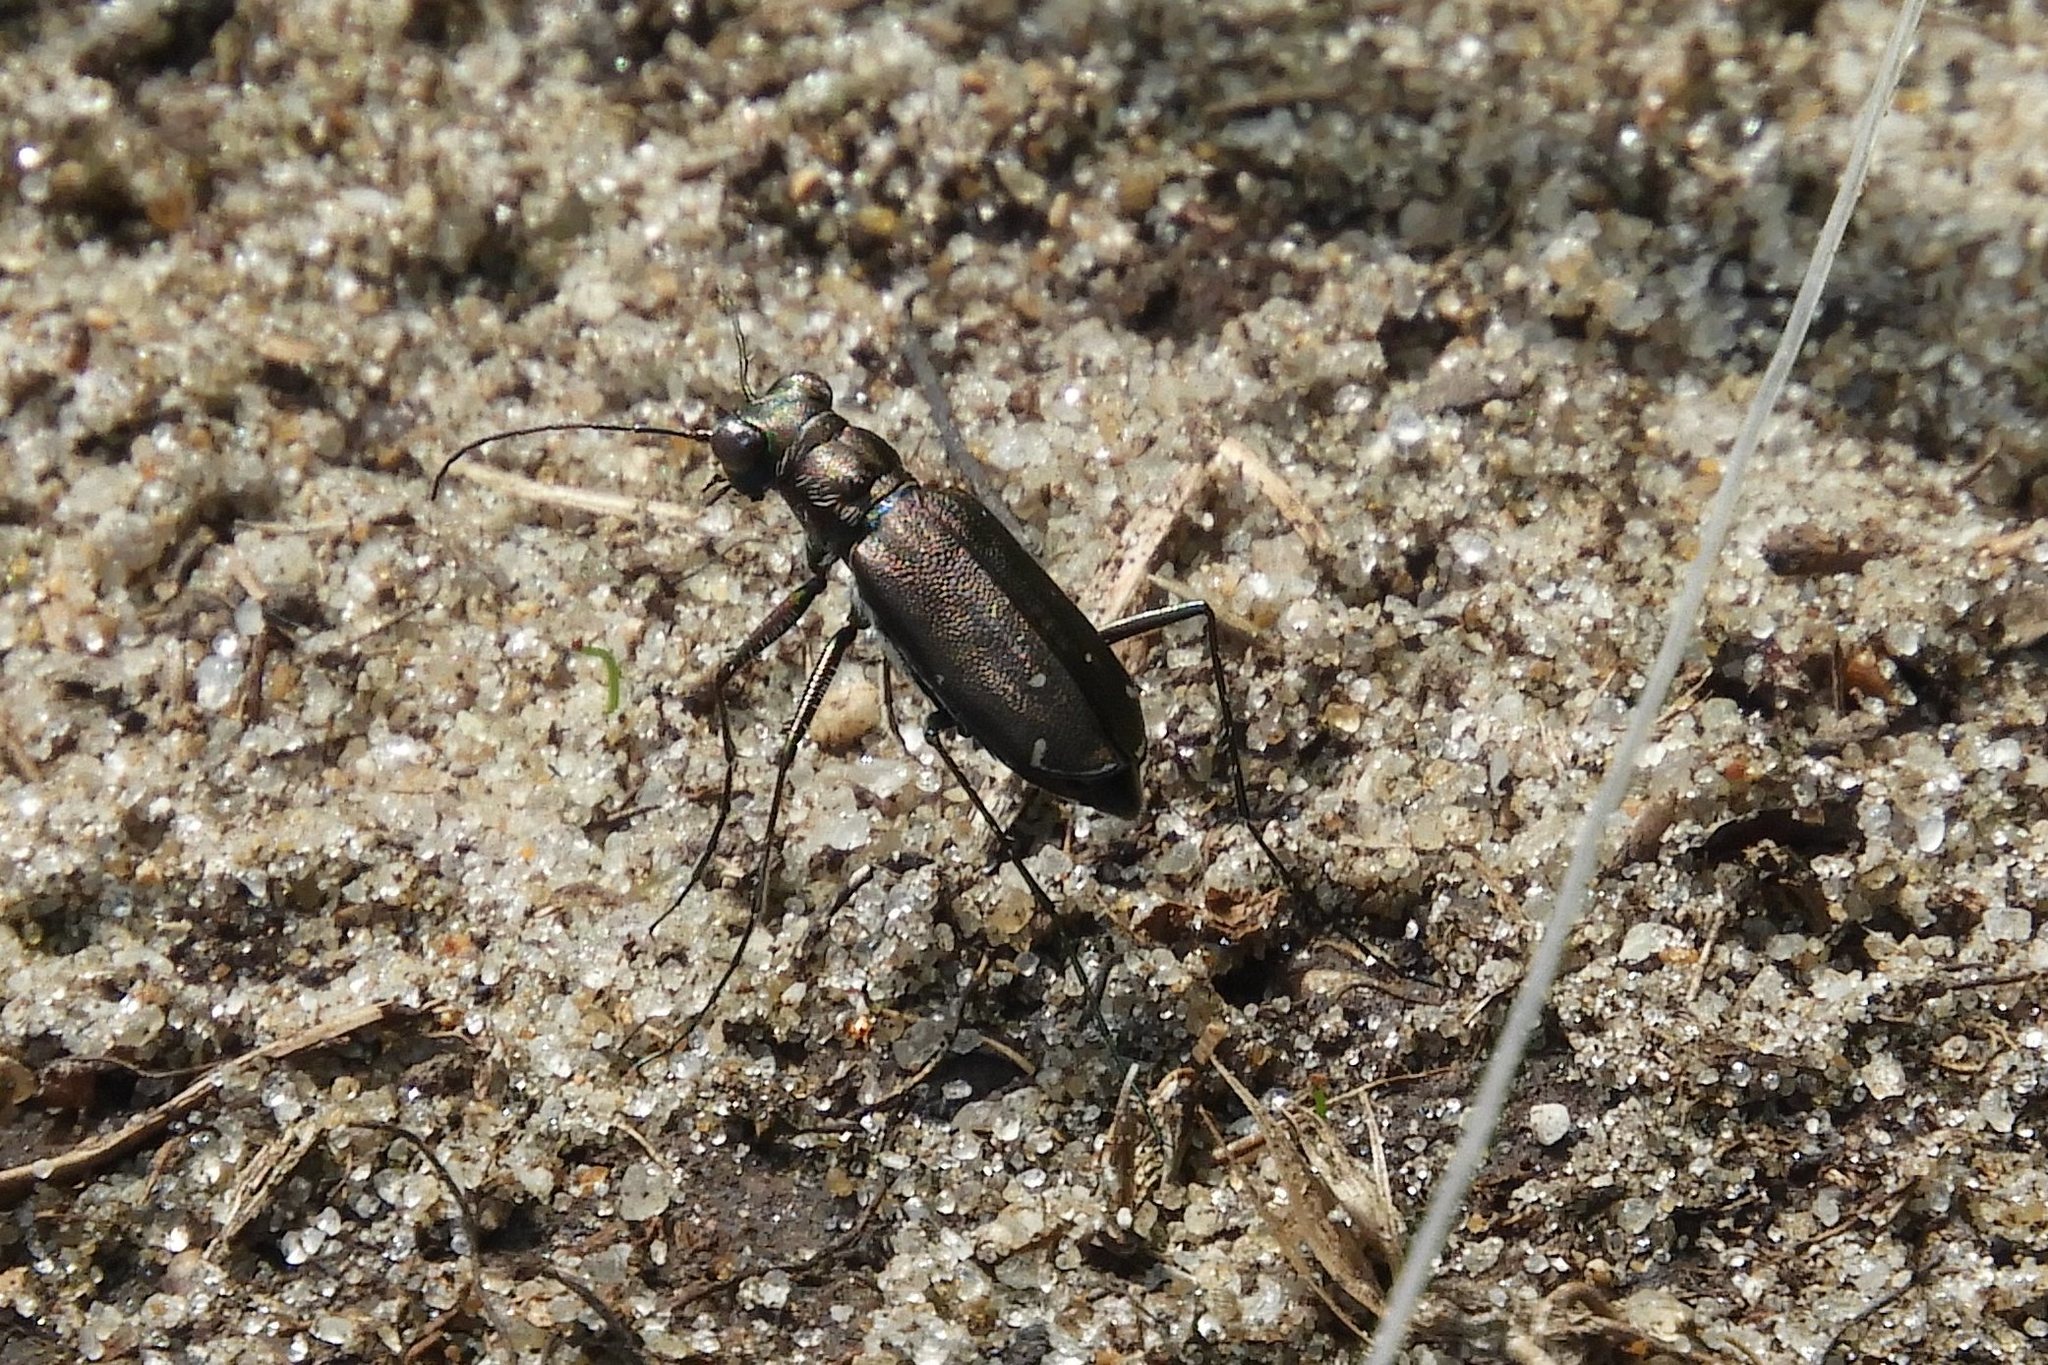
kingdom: Animalia
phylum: Arthropoda
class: Insecta
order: Coleoptera
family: Carabidae
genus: Cicindela
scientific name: Cicindela punctulata
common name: Punctured tiger beetle
